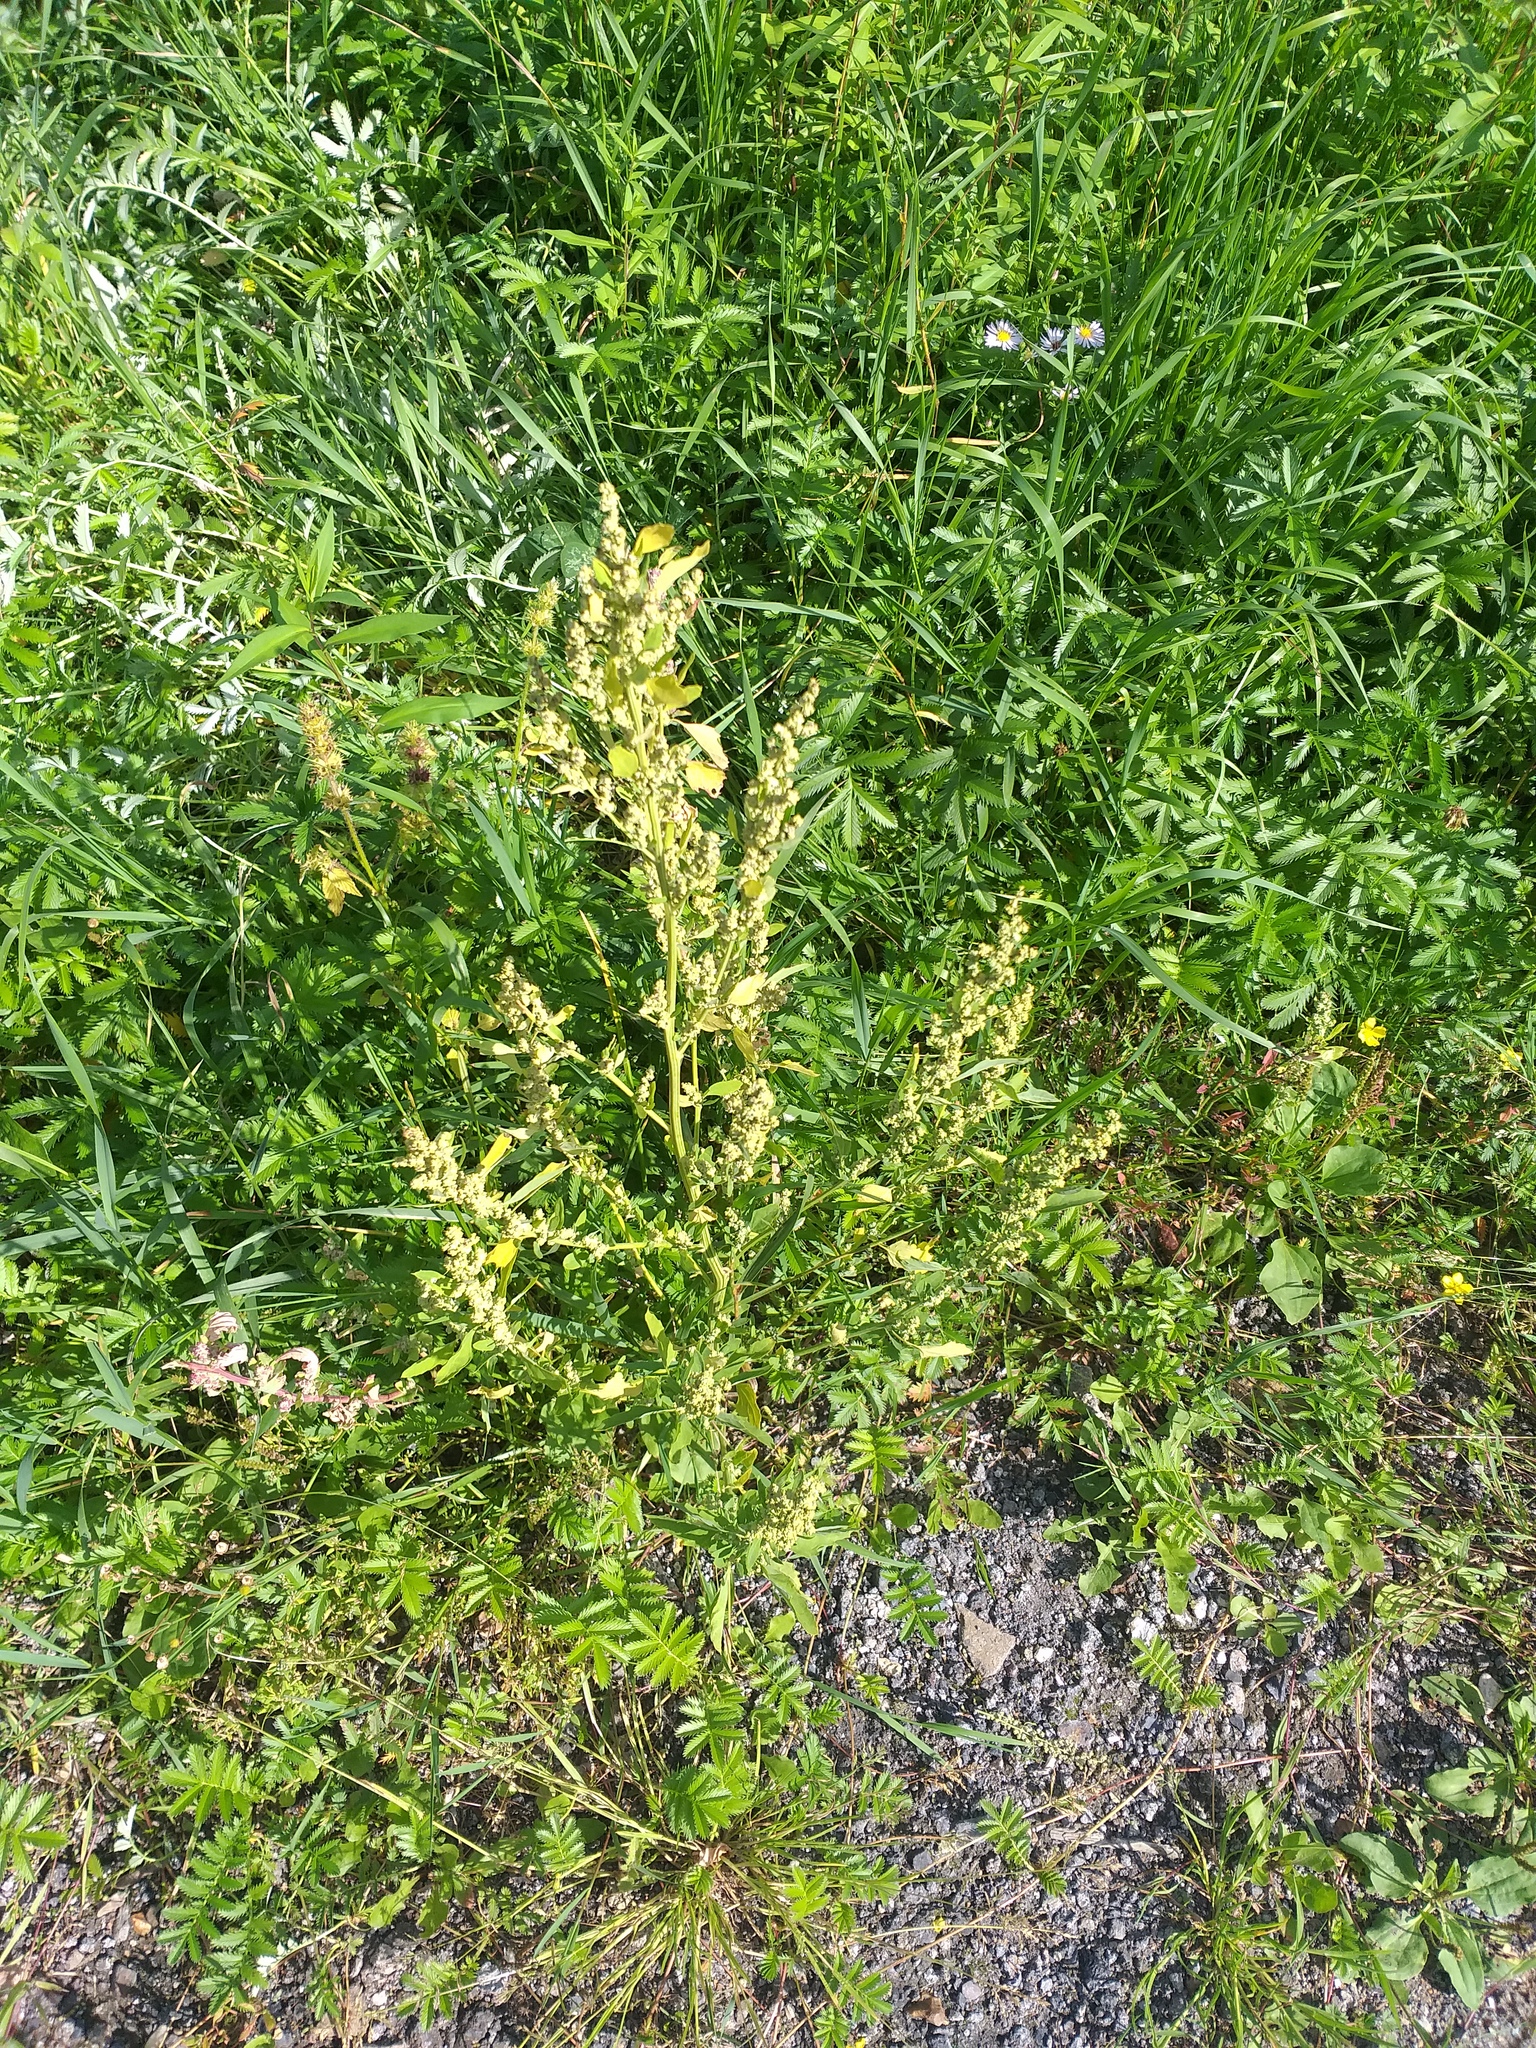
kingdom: Plantae
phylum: Tracheophyta
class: Magnoliopsida
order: Caryophyllales
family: Amaranthaceae
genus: Chenopodium
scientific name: Chenopodium album
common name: Fat-hen
